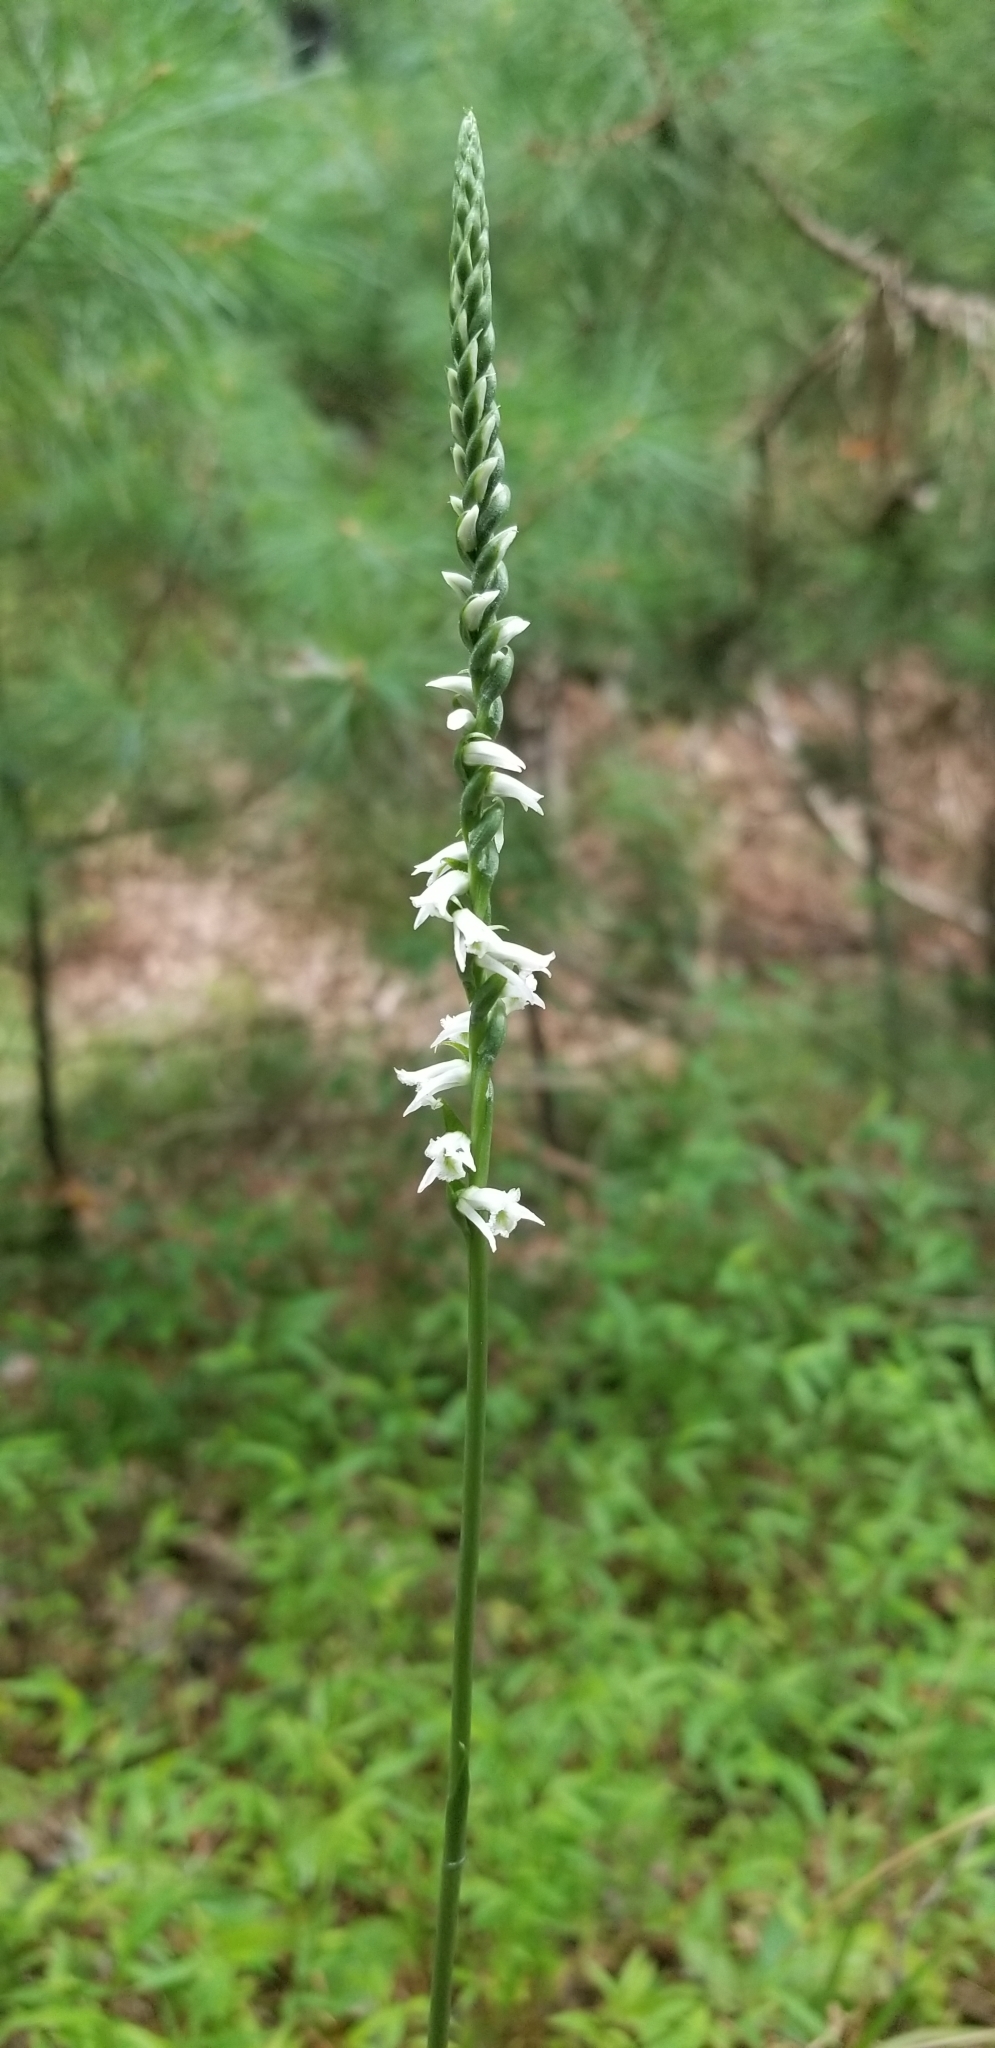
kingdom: Plantae
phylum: Tracheophyta
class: Liliopsida
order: Asparagales
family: Orchidaceae
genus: Spiranthes
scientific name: Spiranthes lacera
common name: Northern slender ladies'-tresses
